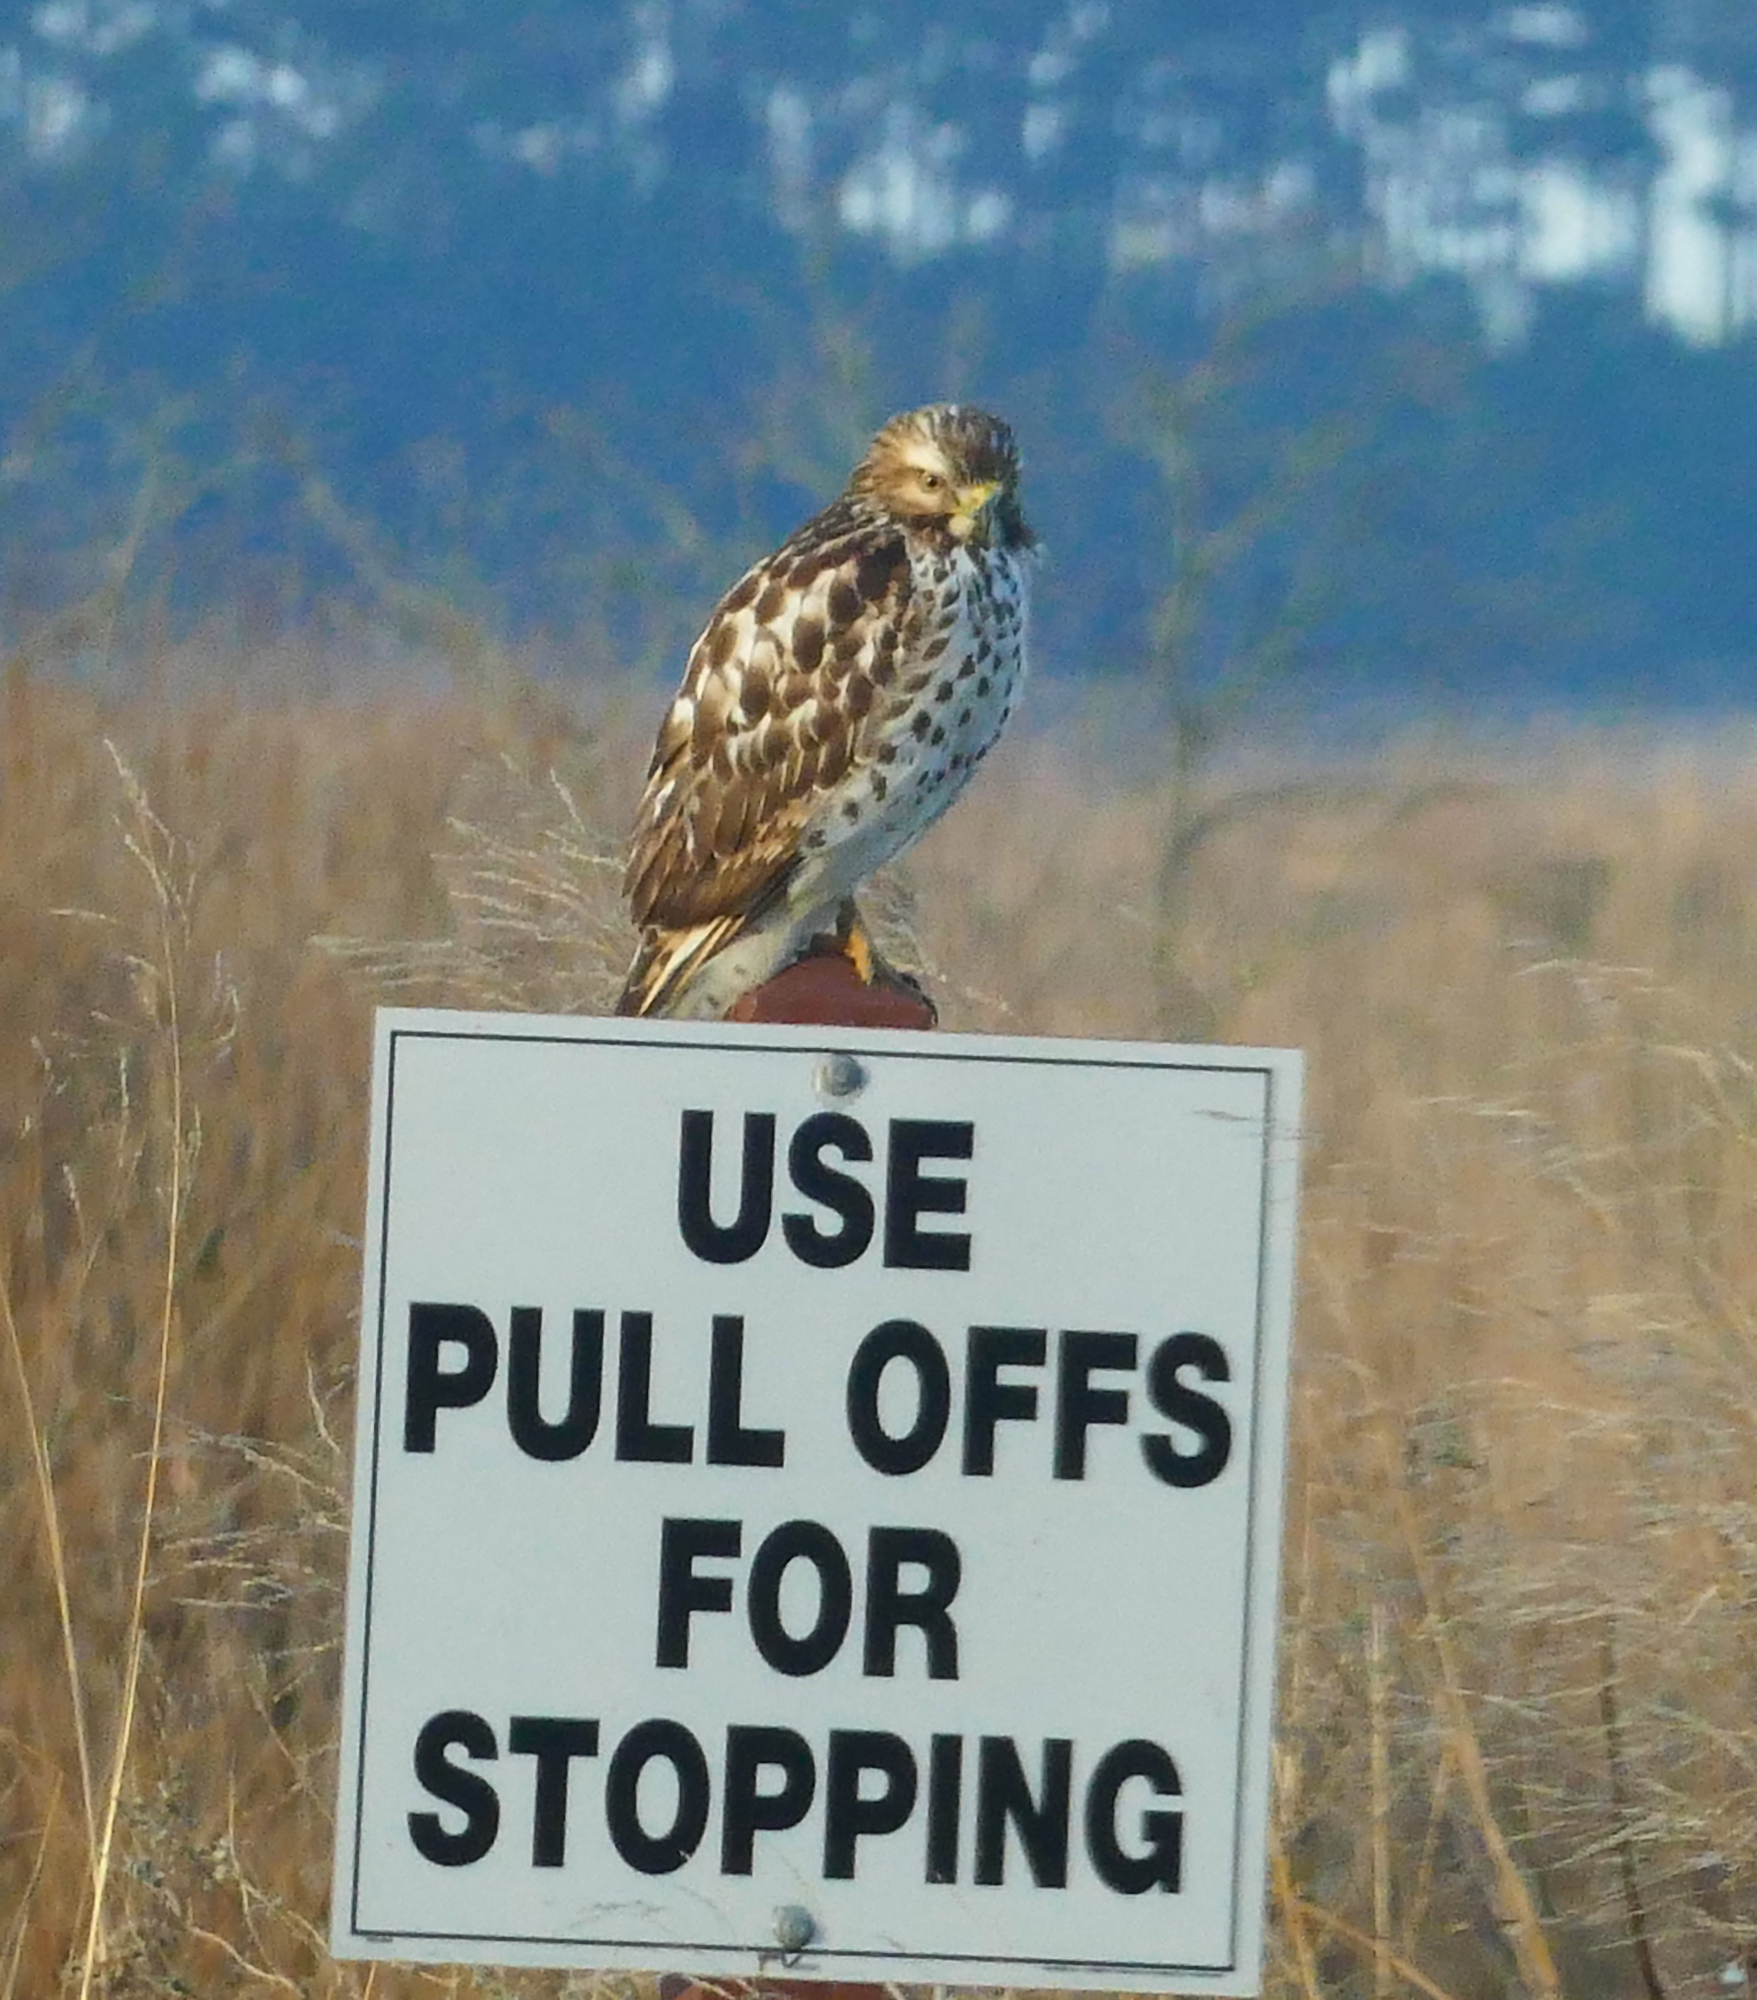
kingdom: Animalia
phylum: Chordata
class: Aves
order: Accipitriformes
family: Accipitridae
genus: Buteo
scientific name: Buteo lineatus
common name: Red-shouldered hawk
